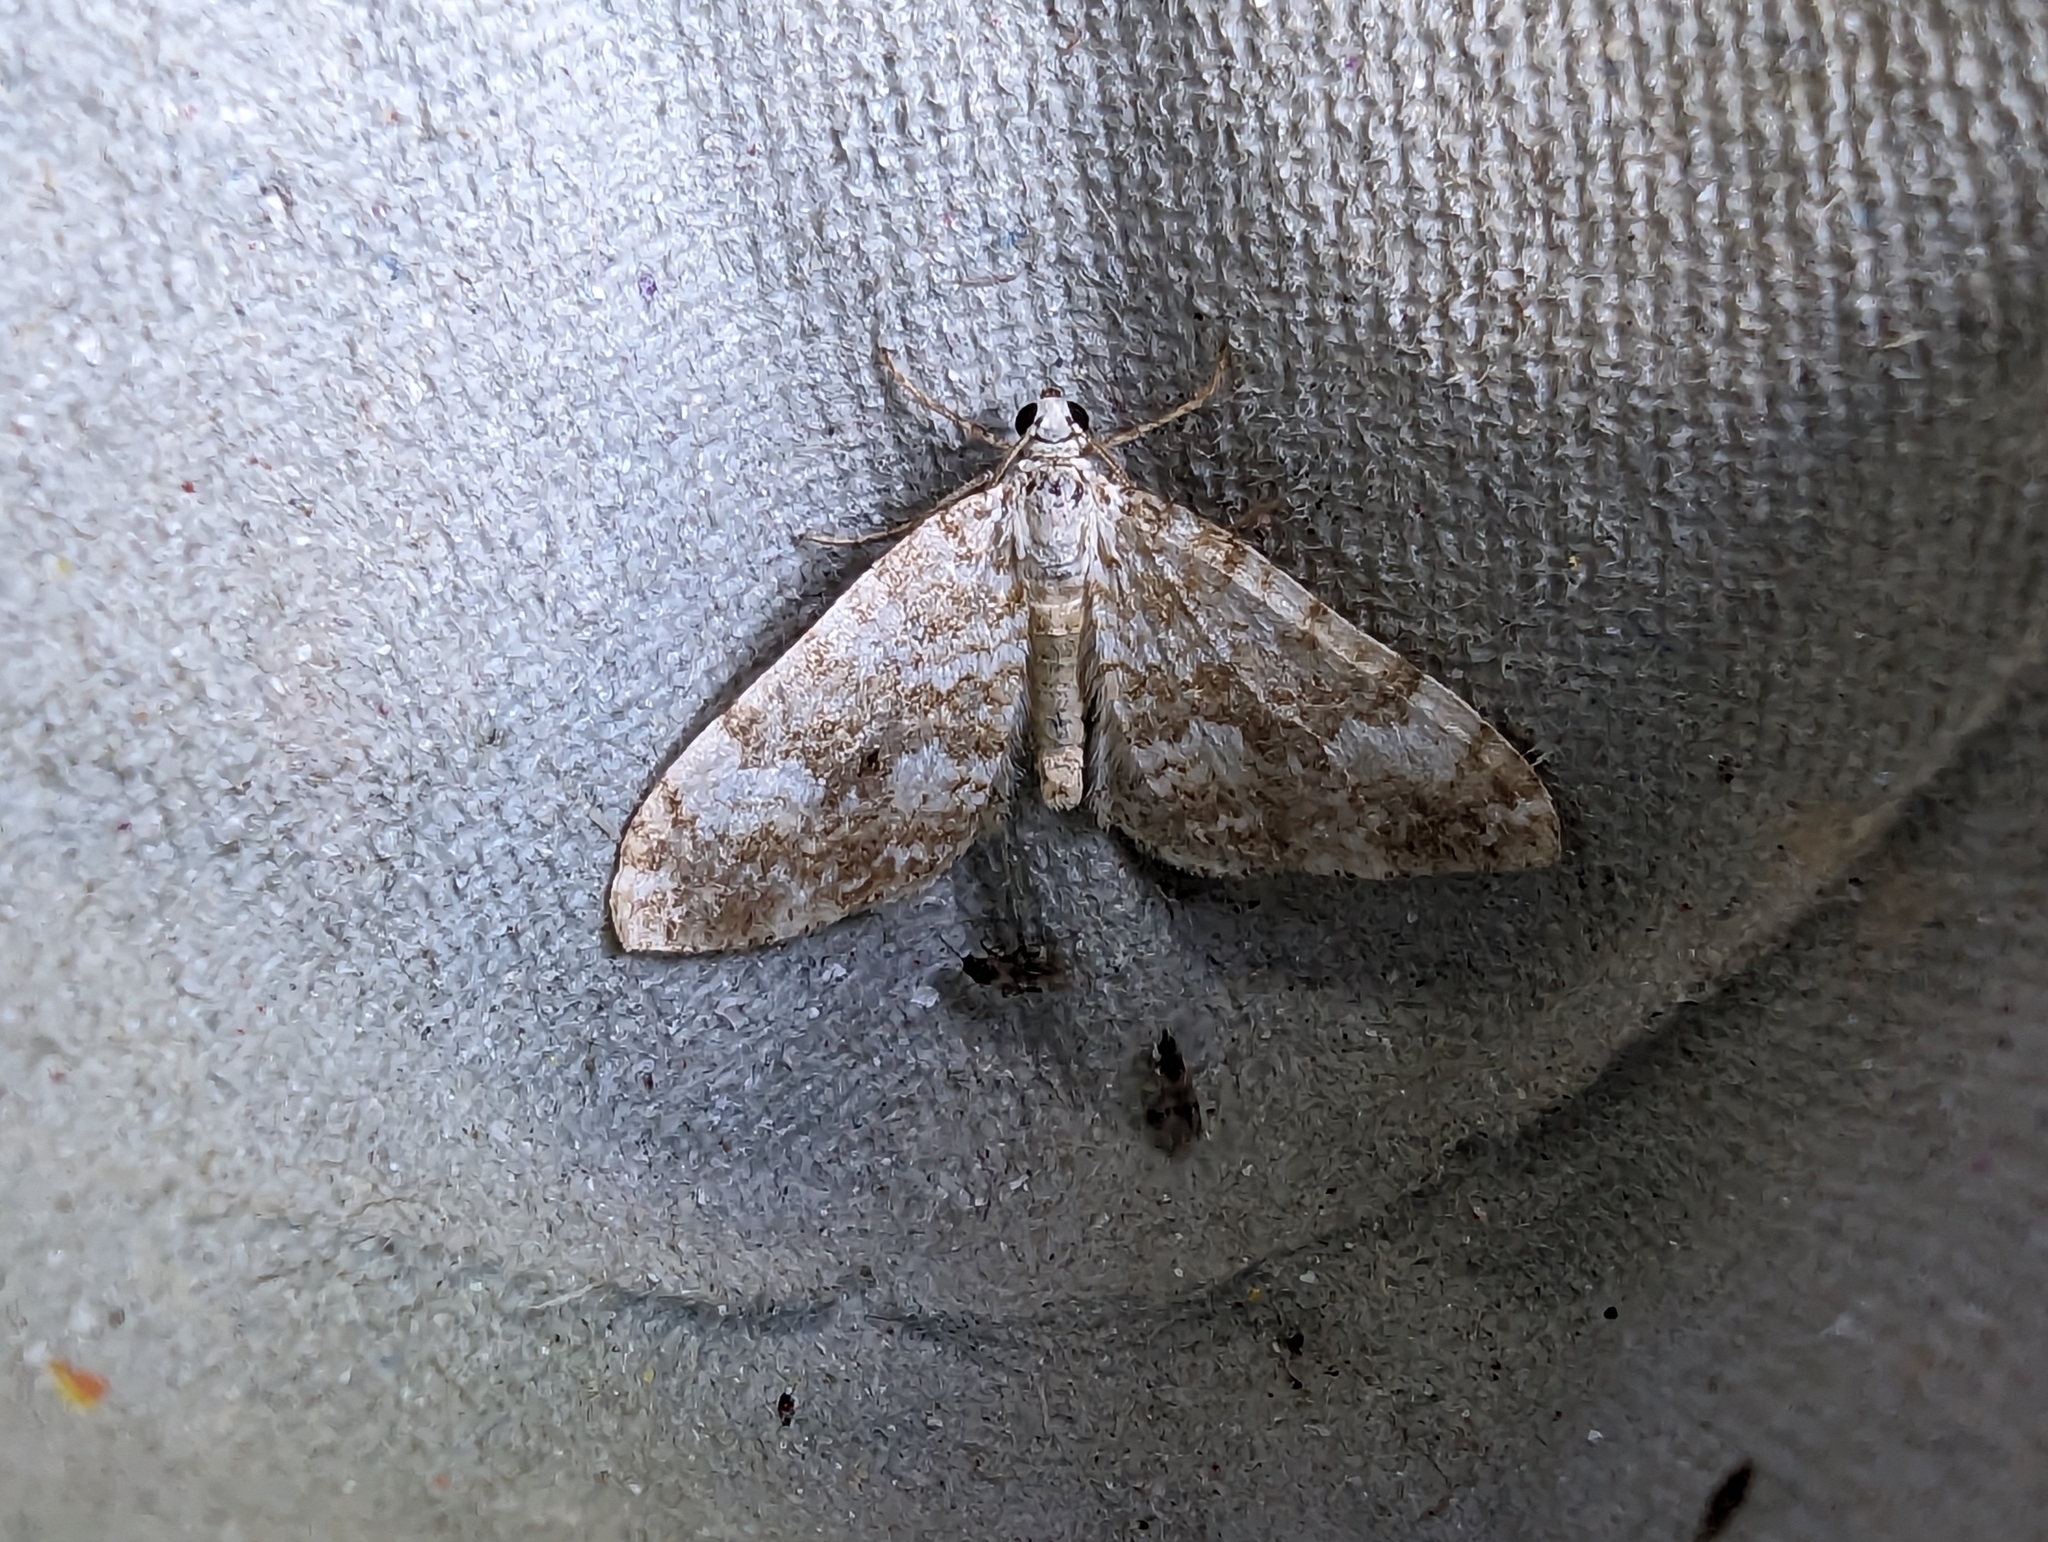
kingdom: Animalia
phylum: Arthropoda
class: Insecta
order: Lepidoptera
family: Geometridae
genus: Perizoma
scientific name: Perizoma flavofasciata
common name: Sandy carpet
